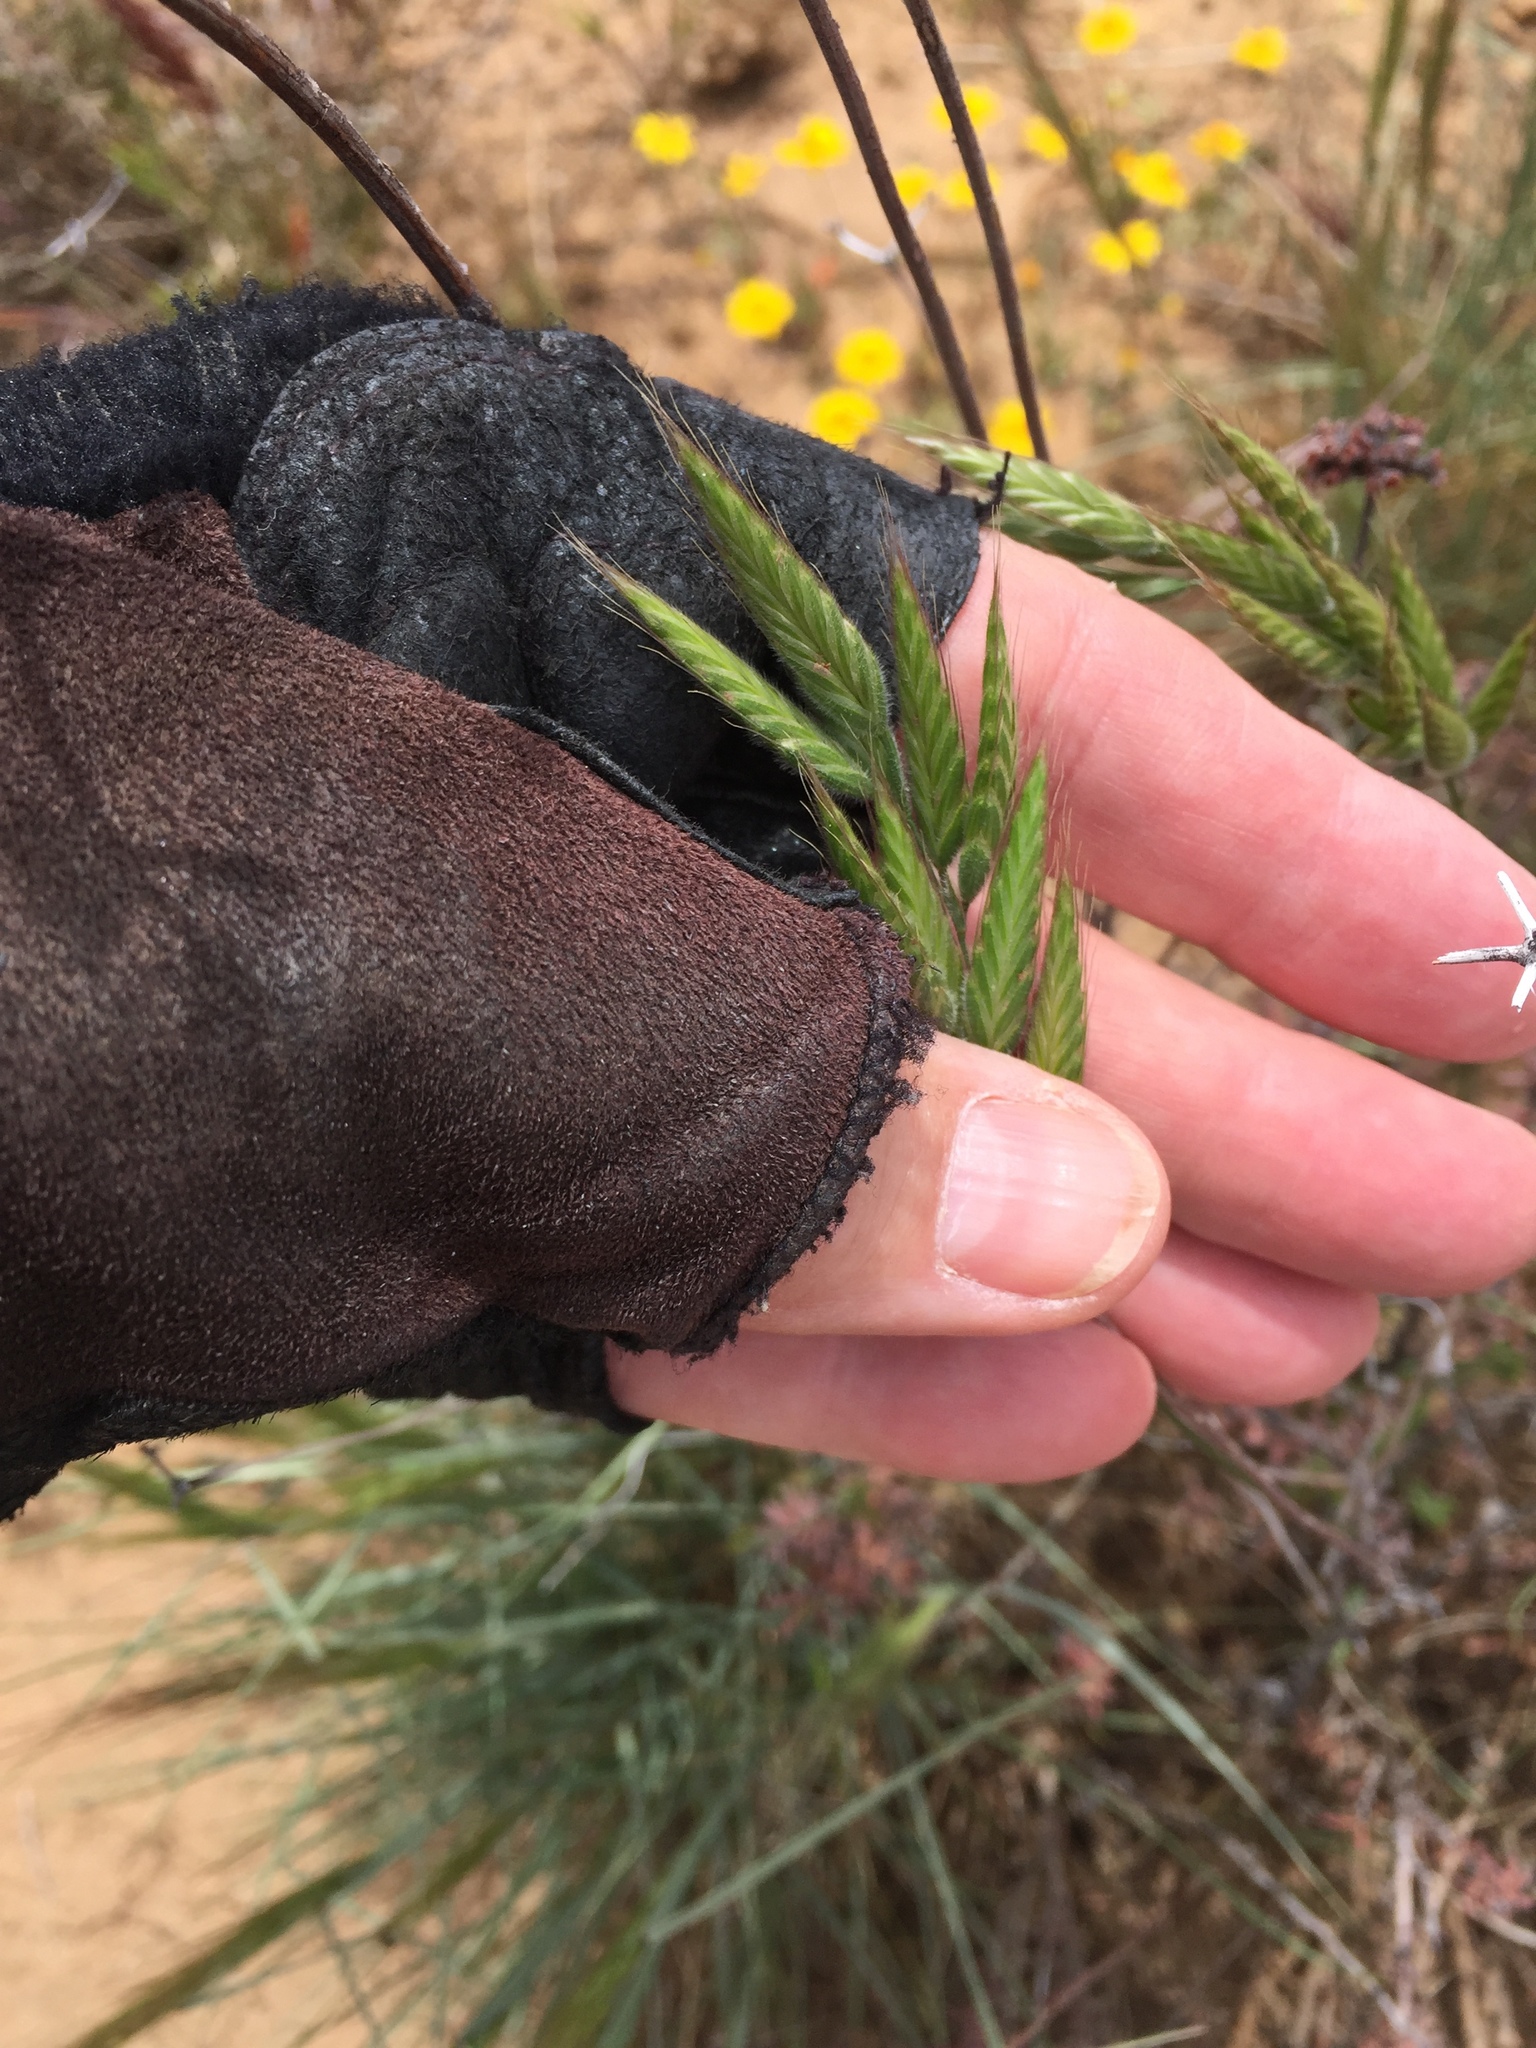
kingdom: Plantae
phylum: Tracheophyta
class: Liliopsida
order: Poales
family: Poaceae
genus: Bromus
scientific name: Bromus hordeaceus
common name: Soft brome
